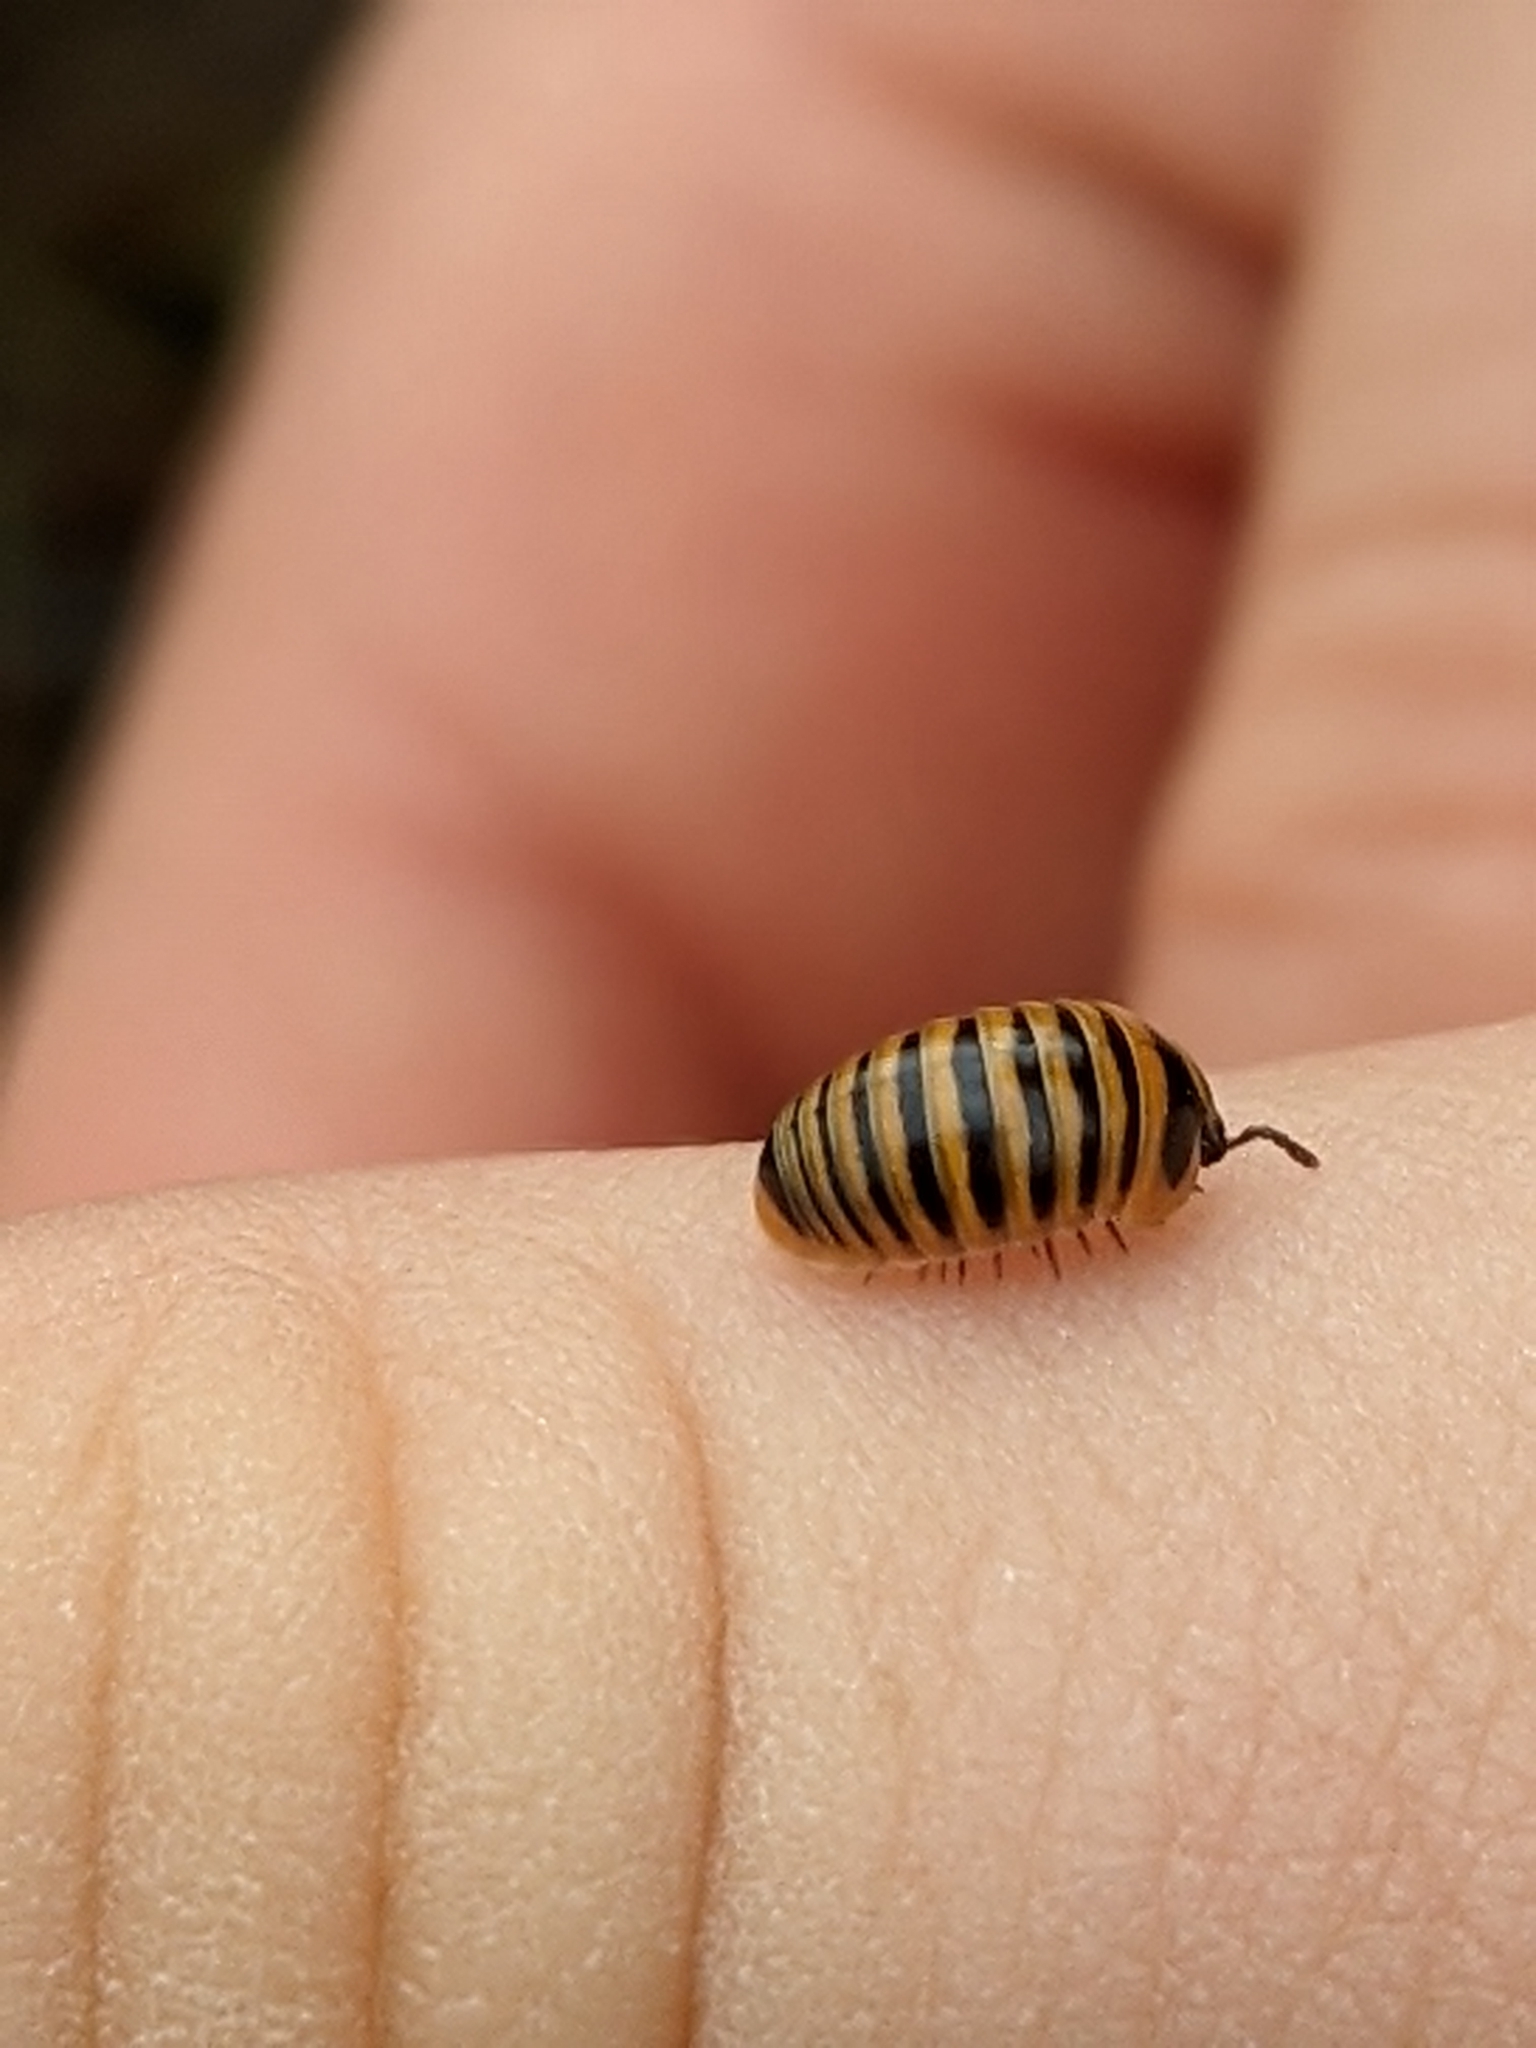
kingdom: Animalia
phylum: Arthropoda
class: Diplopoda
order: Glomerida
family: Glomeridae
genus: Glomeris
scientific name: Glomeris annulata
